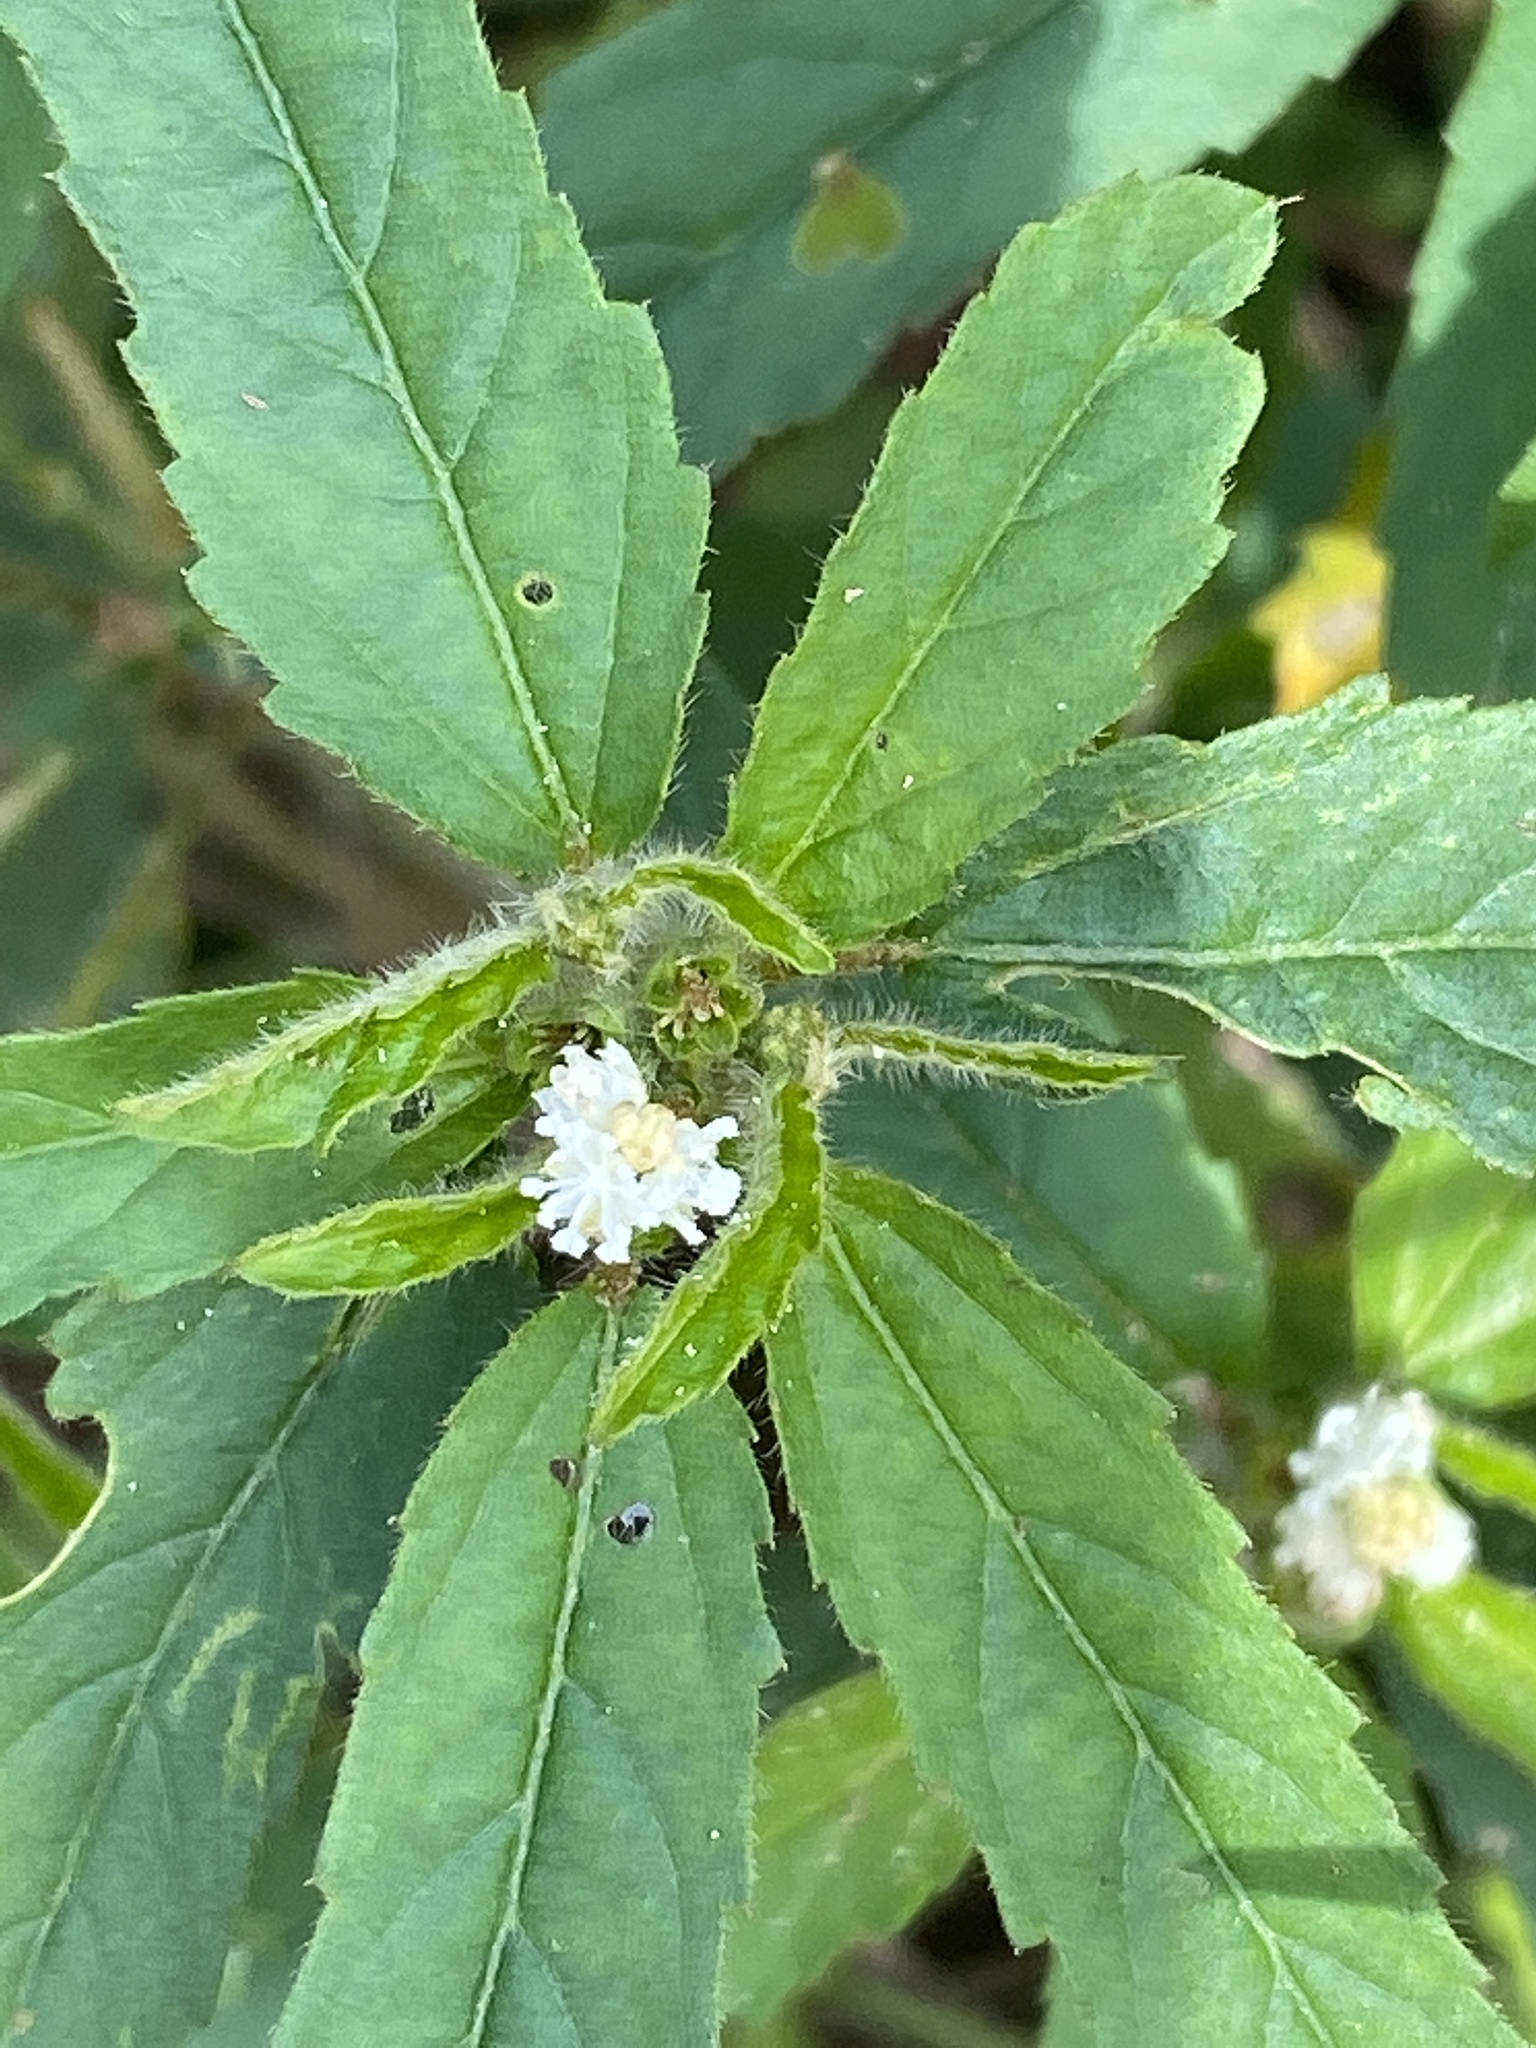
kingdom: Plantae
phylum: Tracheophyta
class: Magnoliopsida
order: Malpighiales
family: Euphorbiaceae
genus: Croton
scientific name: Croton glandulosus
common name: Tropic croton
